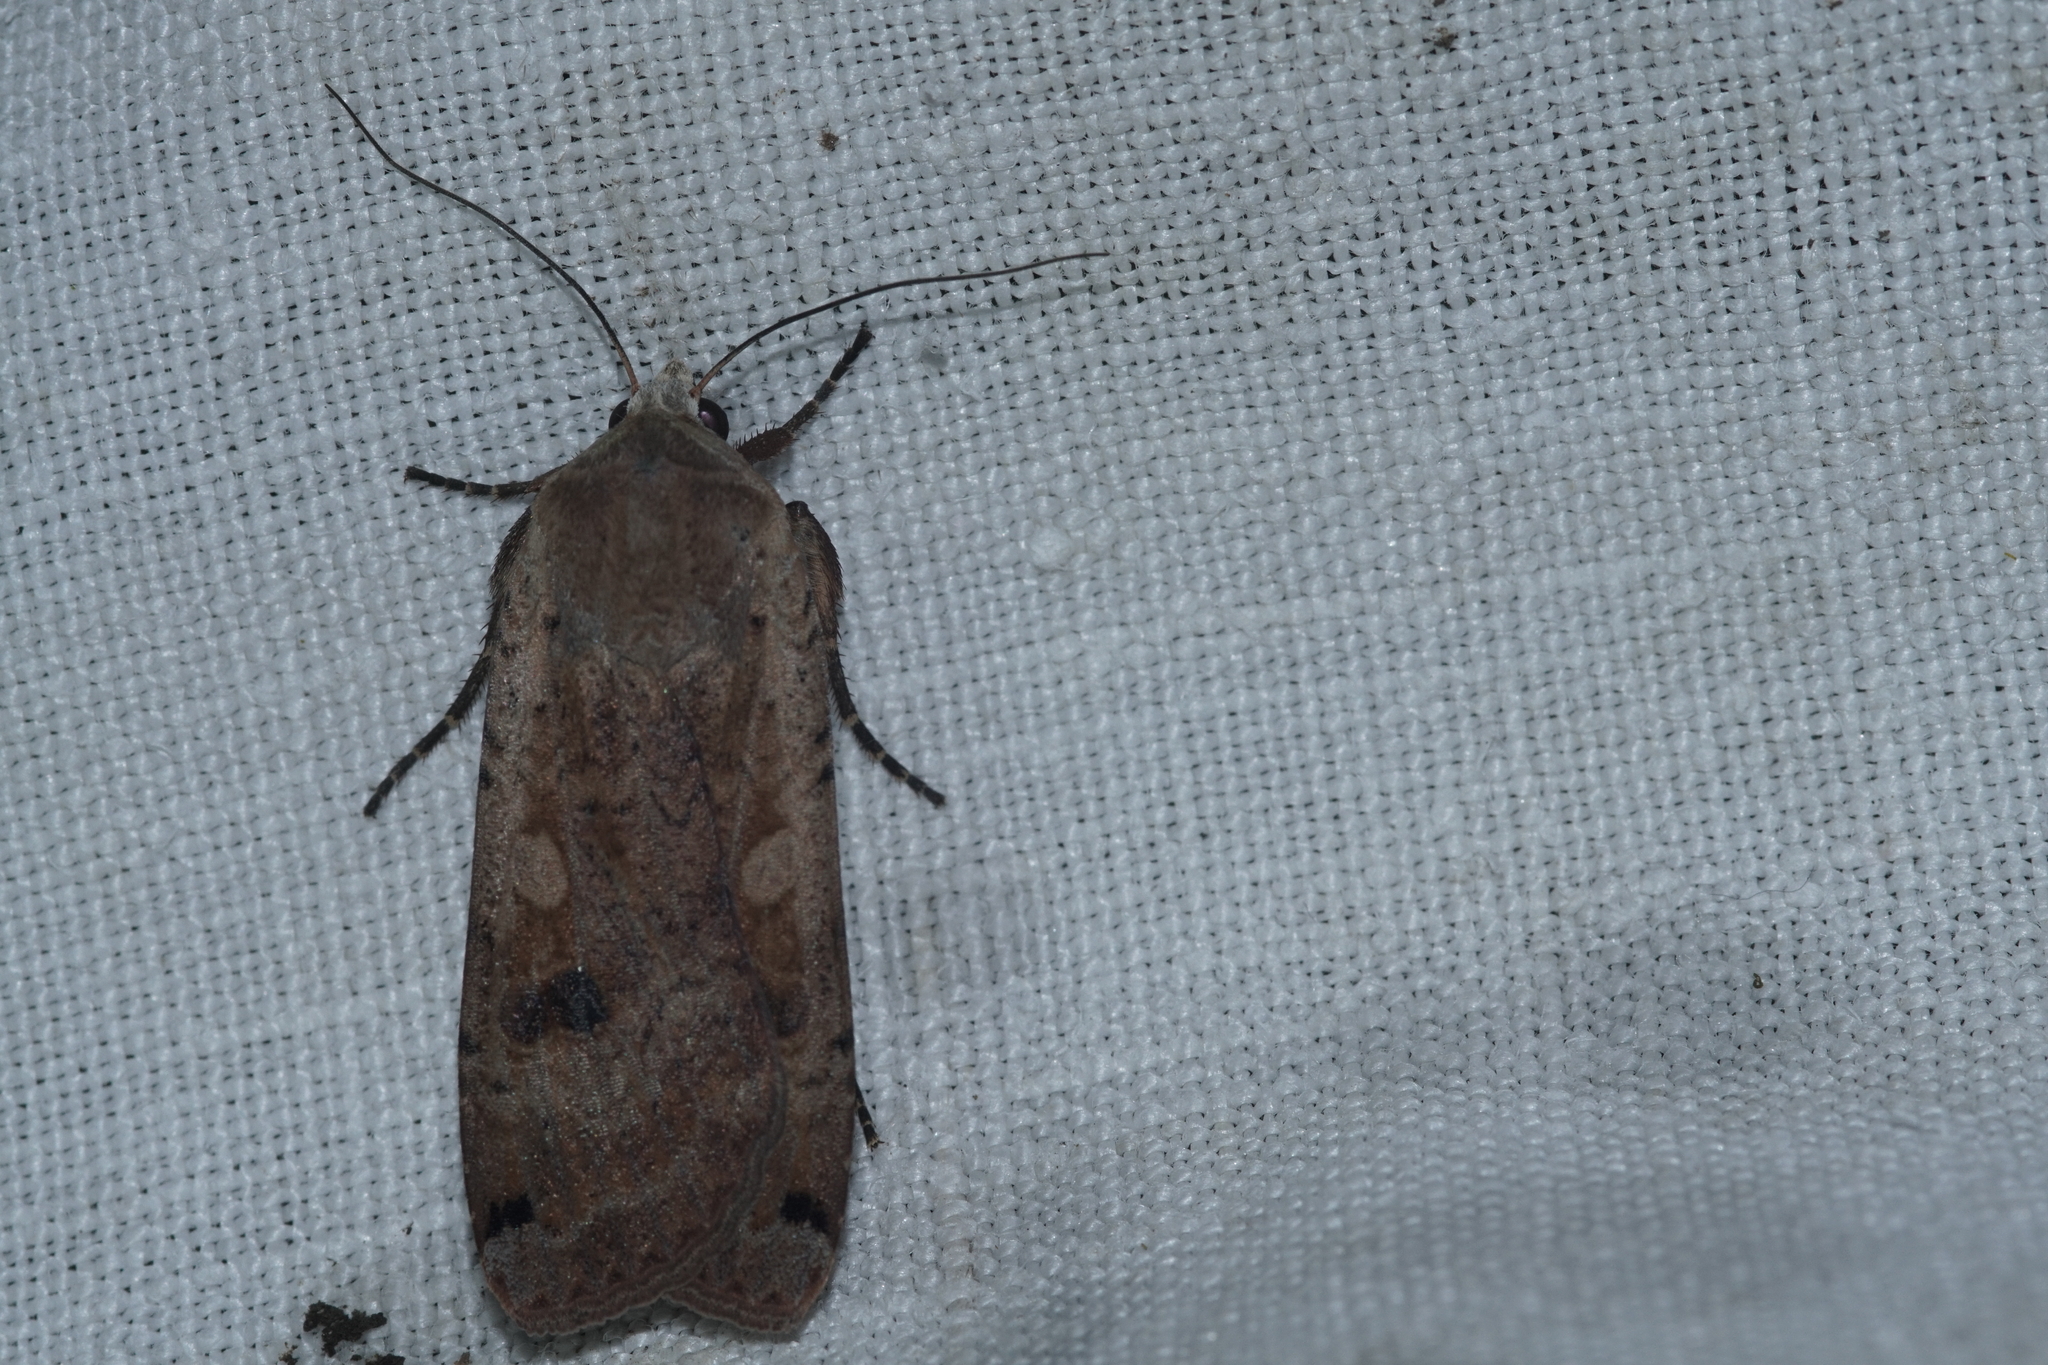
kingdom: Animalia
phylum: Arthropoda
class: Insecta
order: Lepidoptera
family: Noctuidae
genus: Noctua
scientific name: Noctua pronuba
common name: Large yellow underwing
